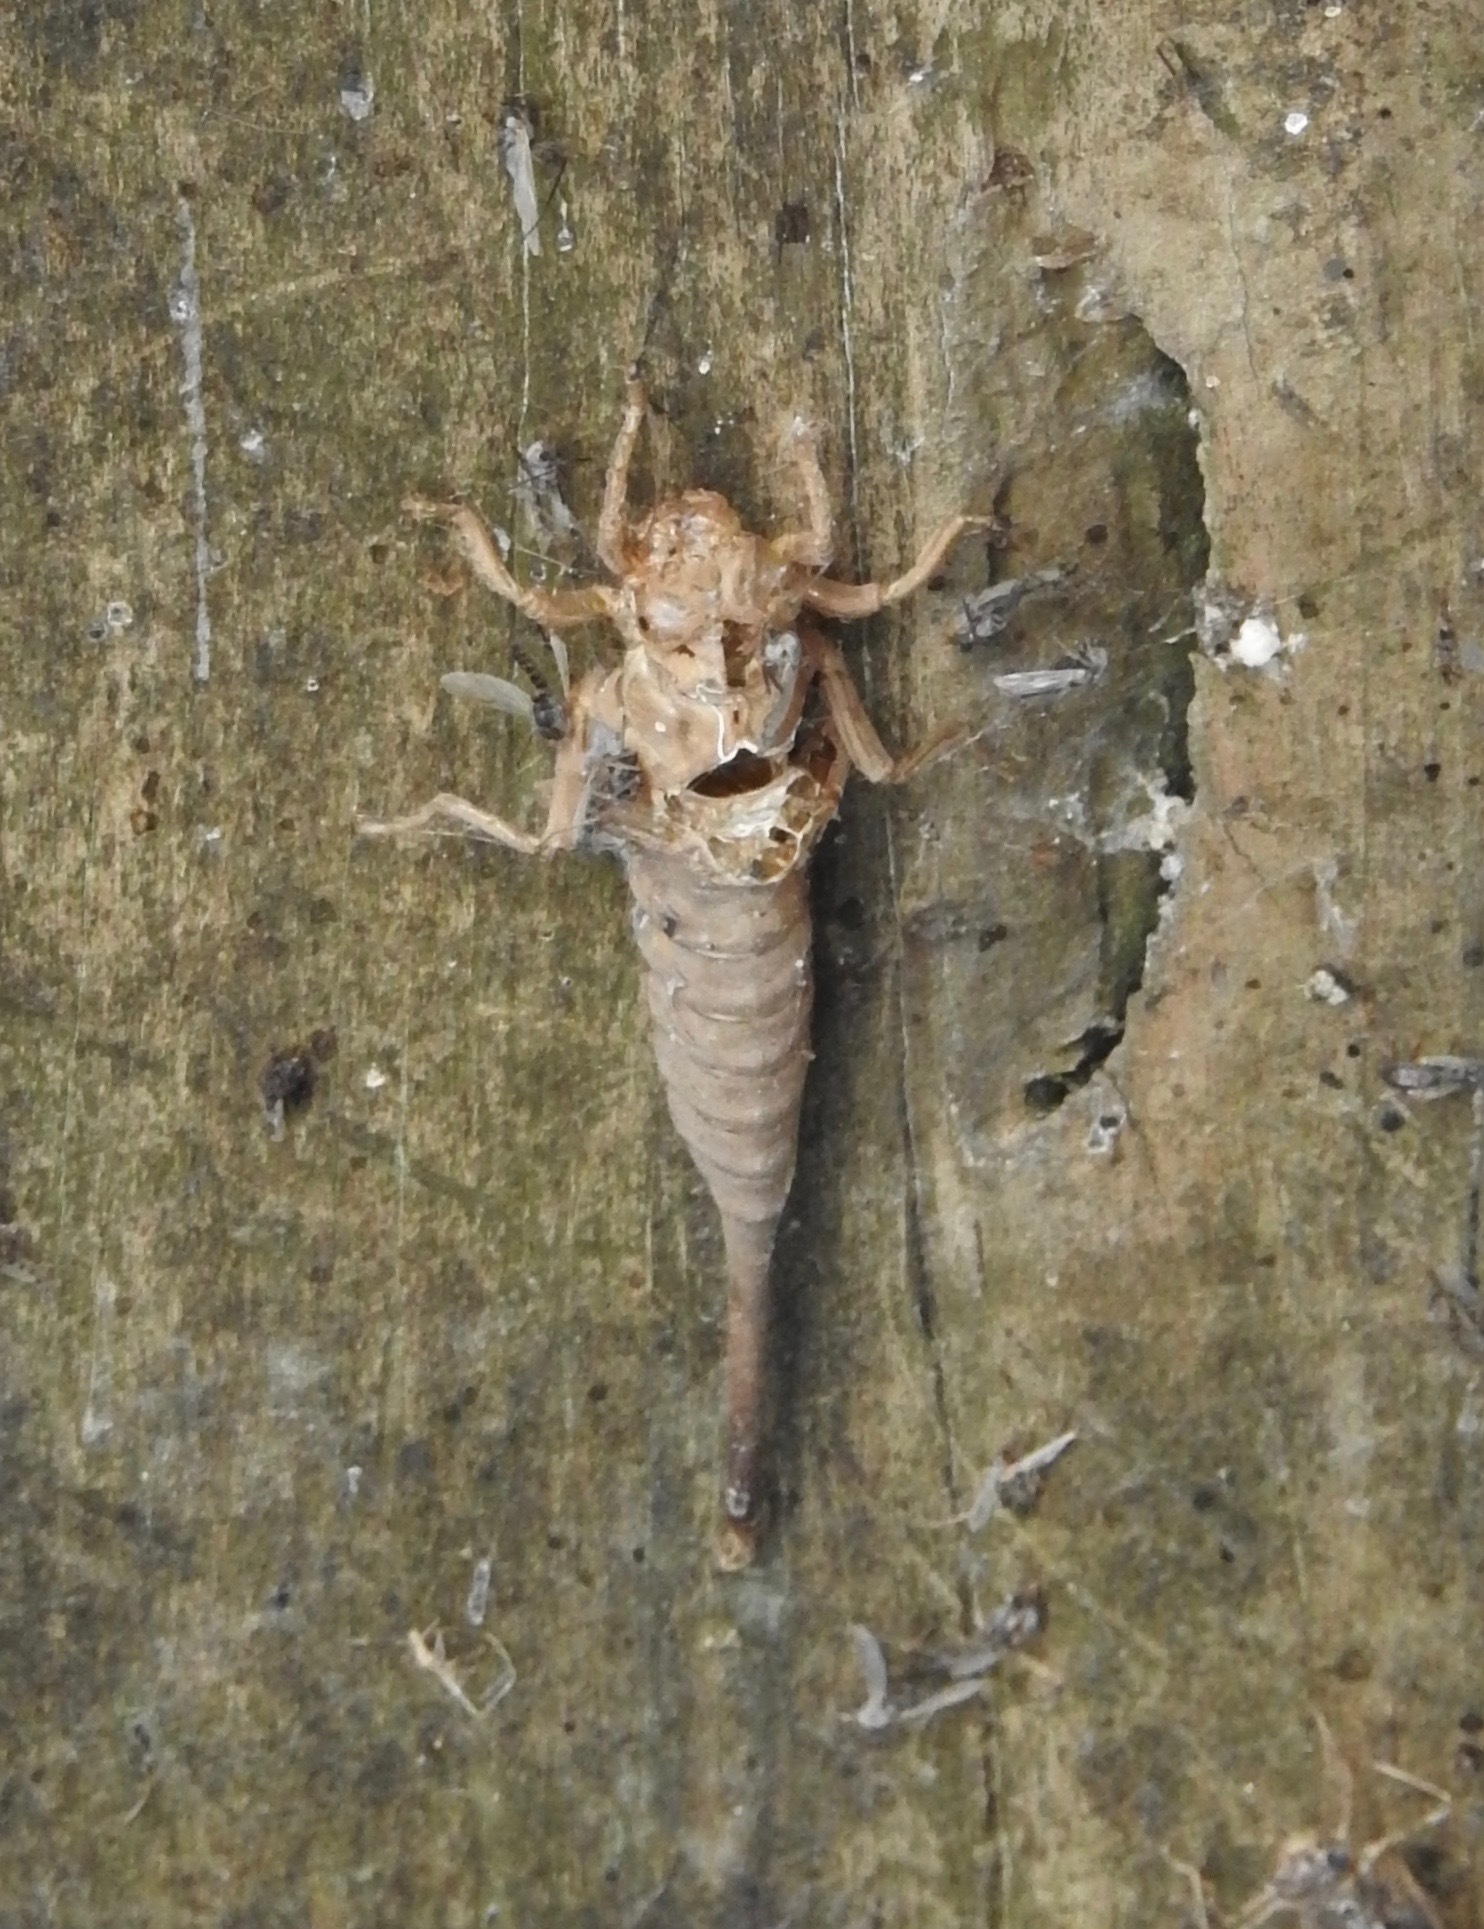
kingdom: Animalia
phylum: Arthropoda
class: Insecta
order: Odonata
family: Gomphidae
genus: Aphylla
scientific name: Aphylla williamsoni
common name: Two-striped forceptail
